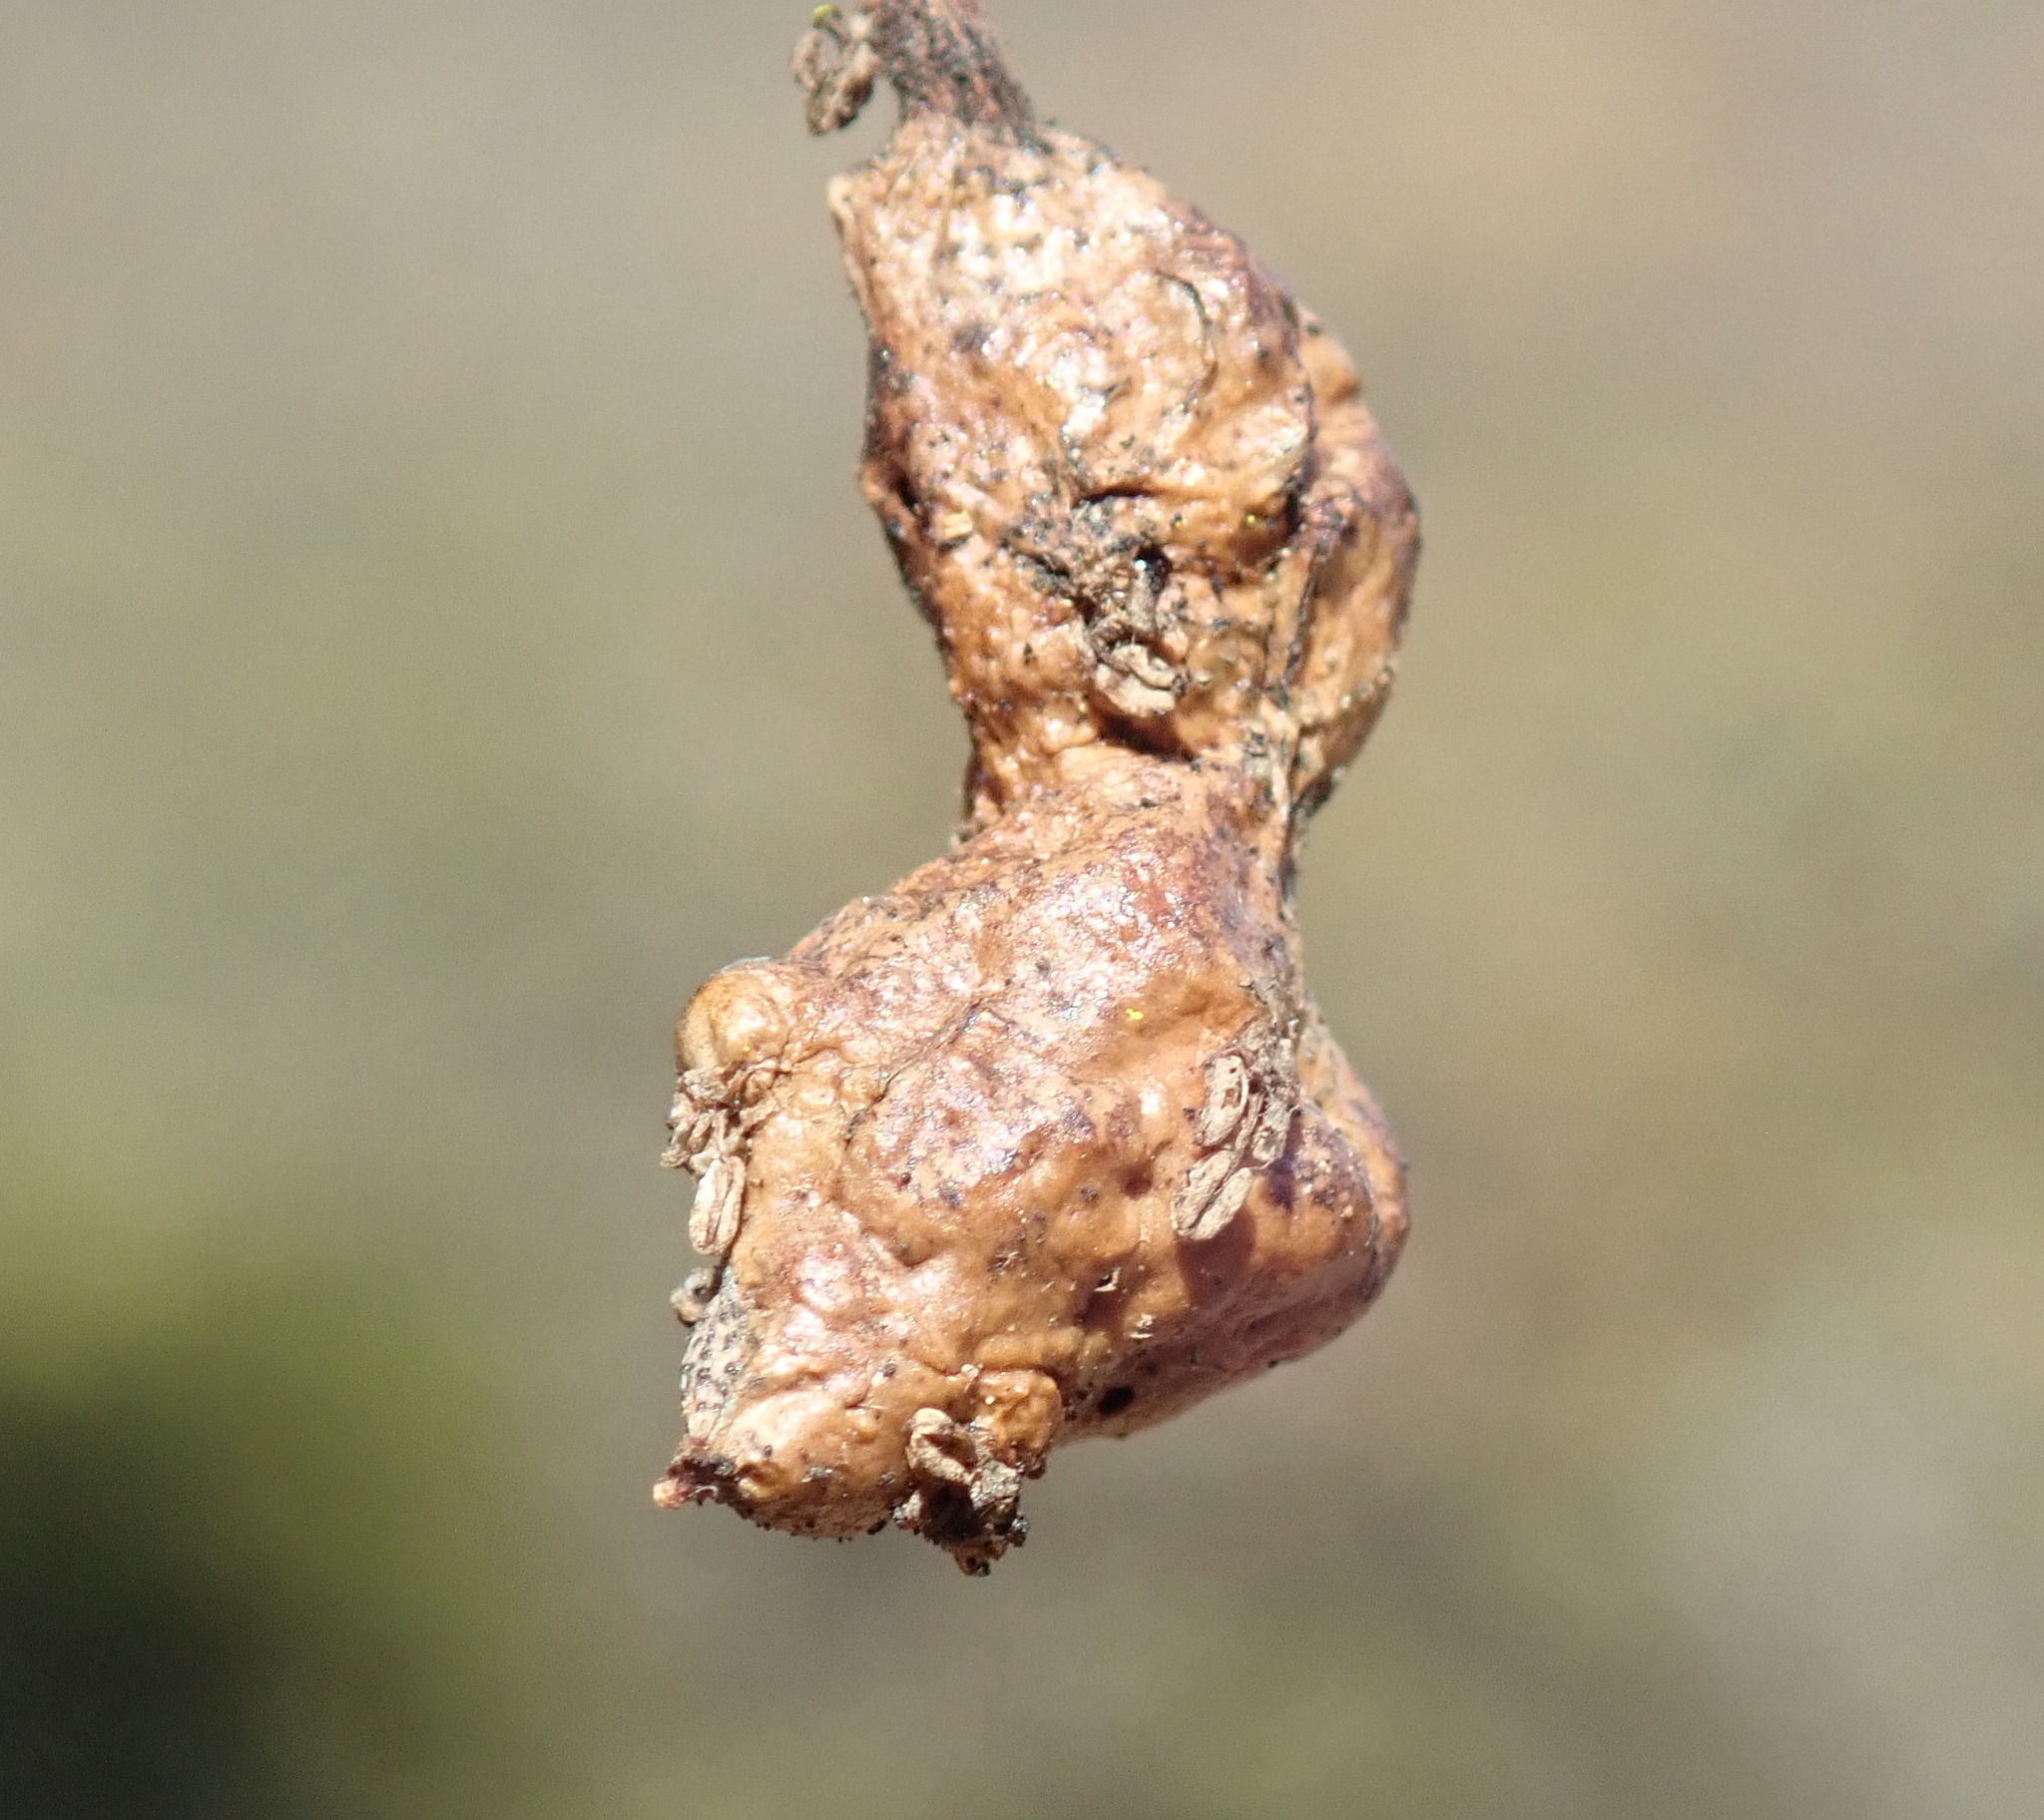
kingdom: Animalia
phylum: Arthropoda
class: Insecta
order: Hymenoptera
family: Cynipidae
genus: Callirhytis
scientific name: Callirhytis
